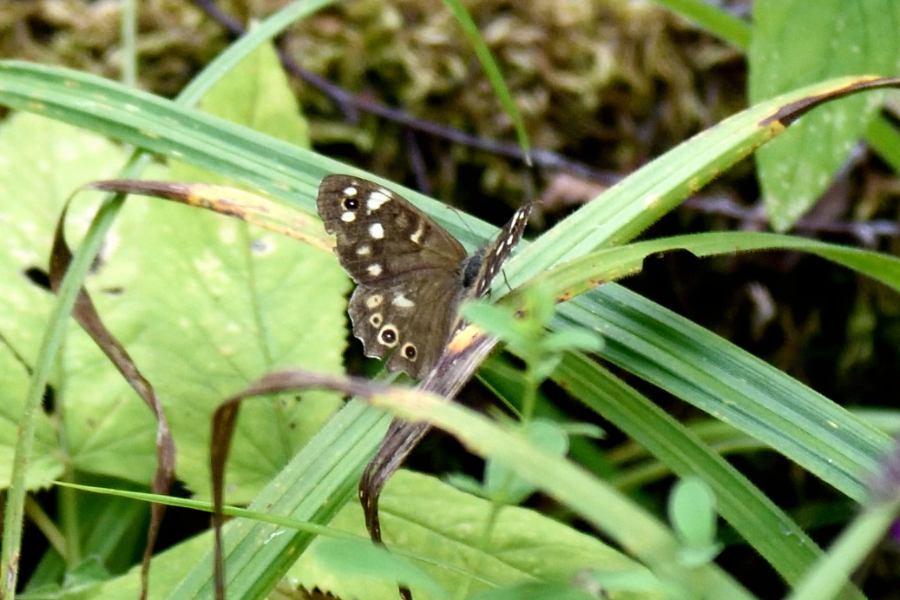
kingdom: Animalia
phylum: Arthropoda
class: Insecta
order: Lepidoptera
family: Nymphalidae
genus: Pararge
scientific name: Pararge aegeria
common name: Speckled wood
